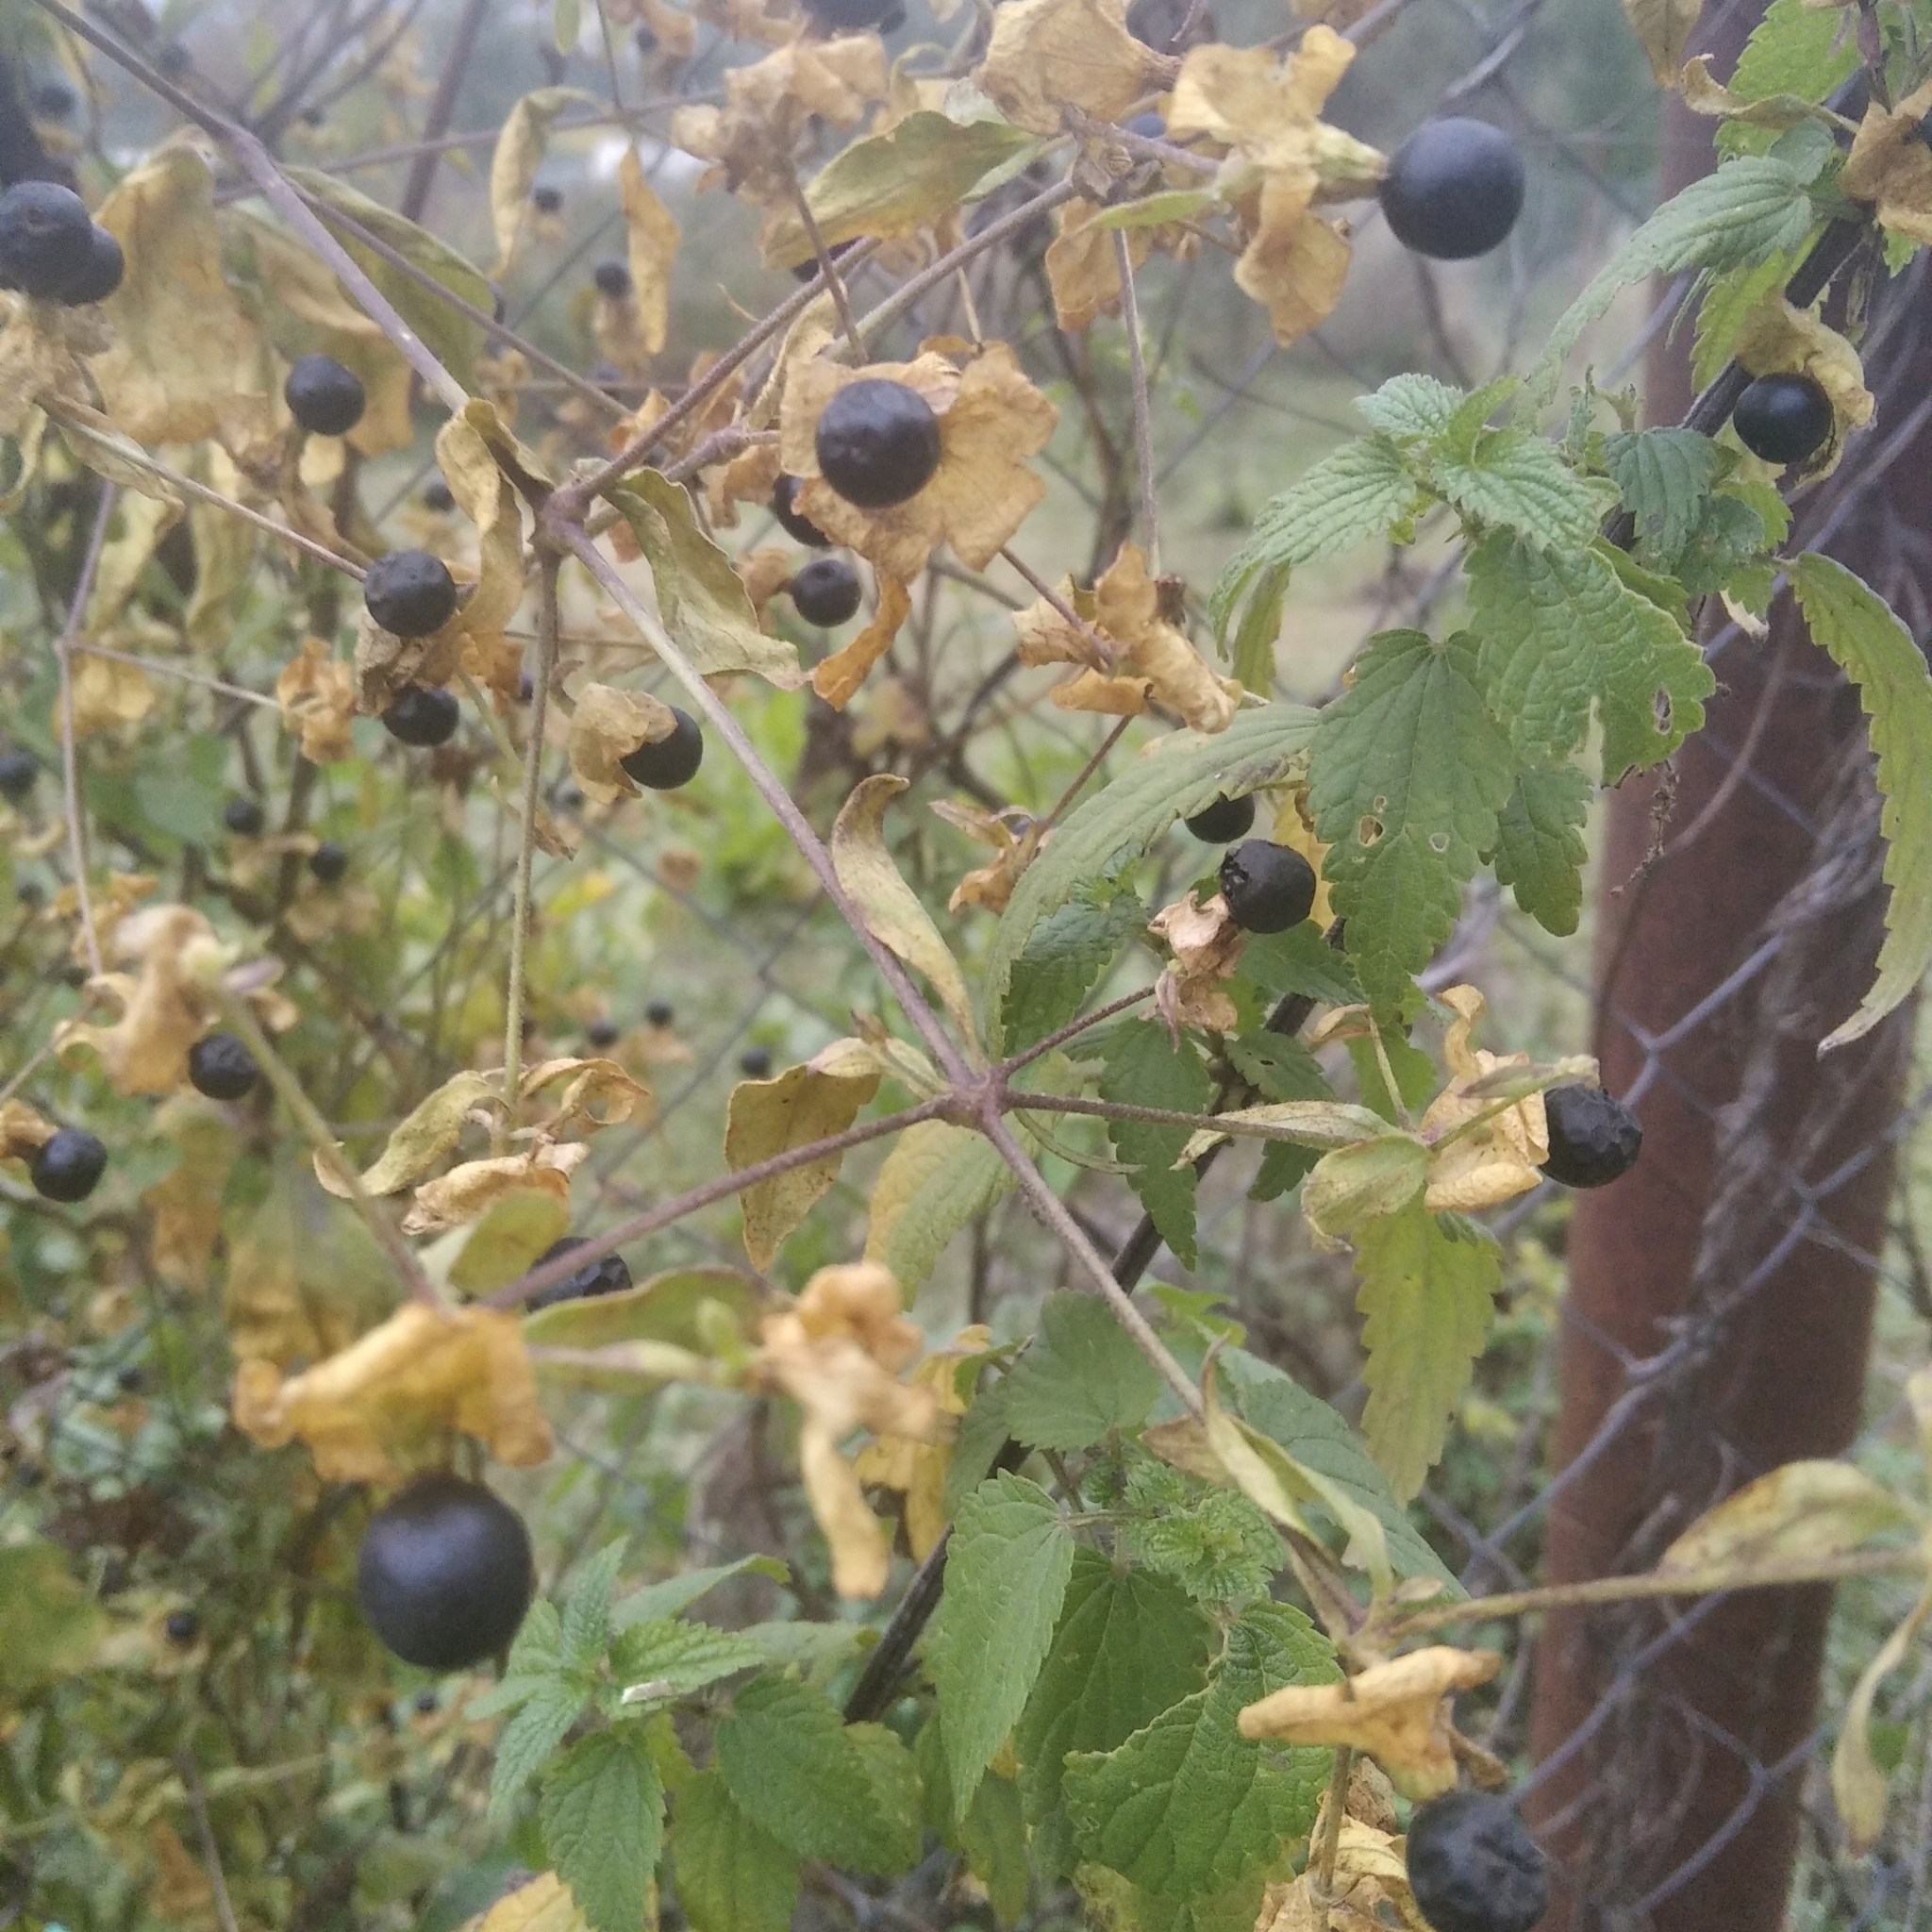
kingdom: Plantae
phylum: Tracheophyta
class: Magnoliopsida
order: Caryophyllales
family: Caryophyllaceae
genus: Silene
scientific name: Silene baccifera
